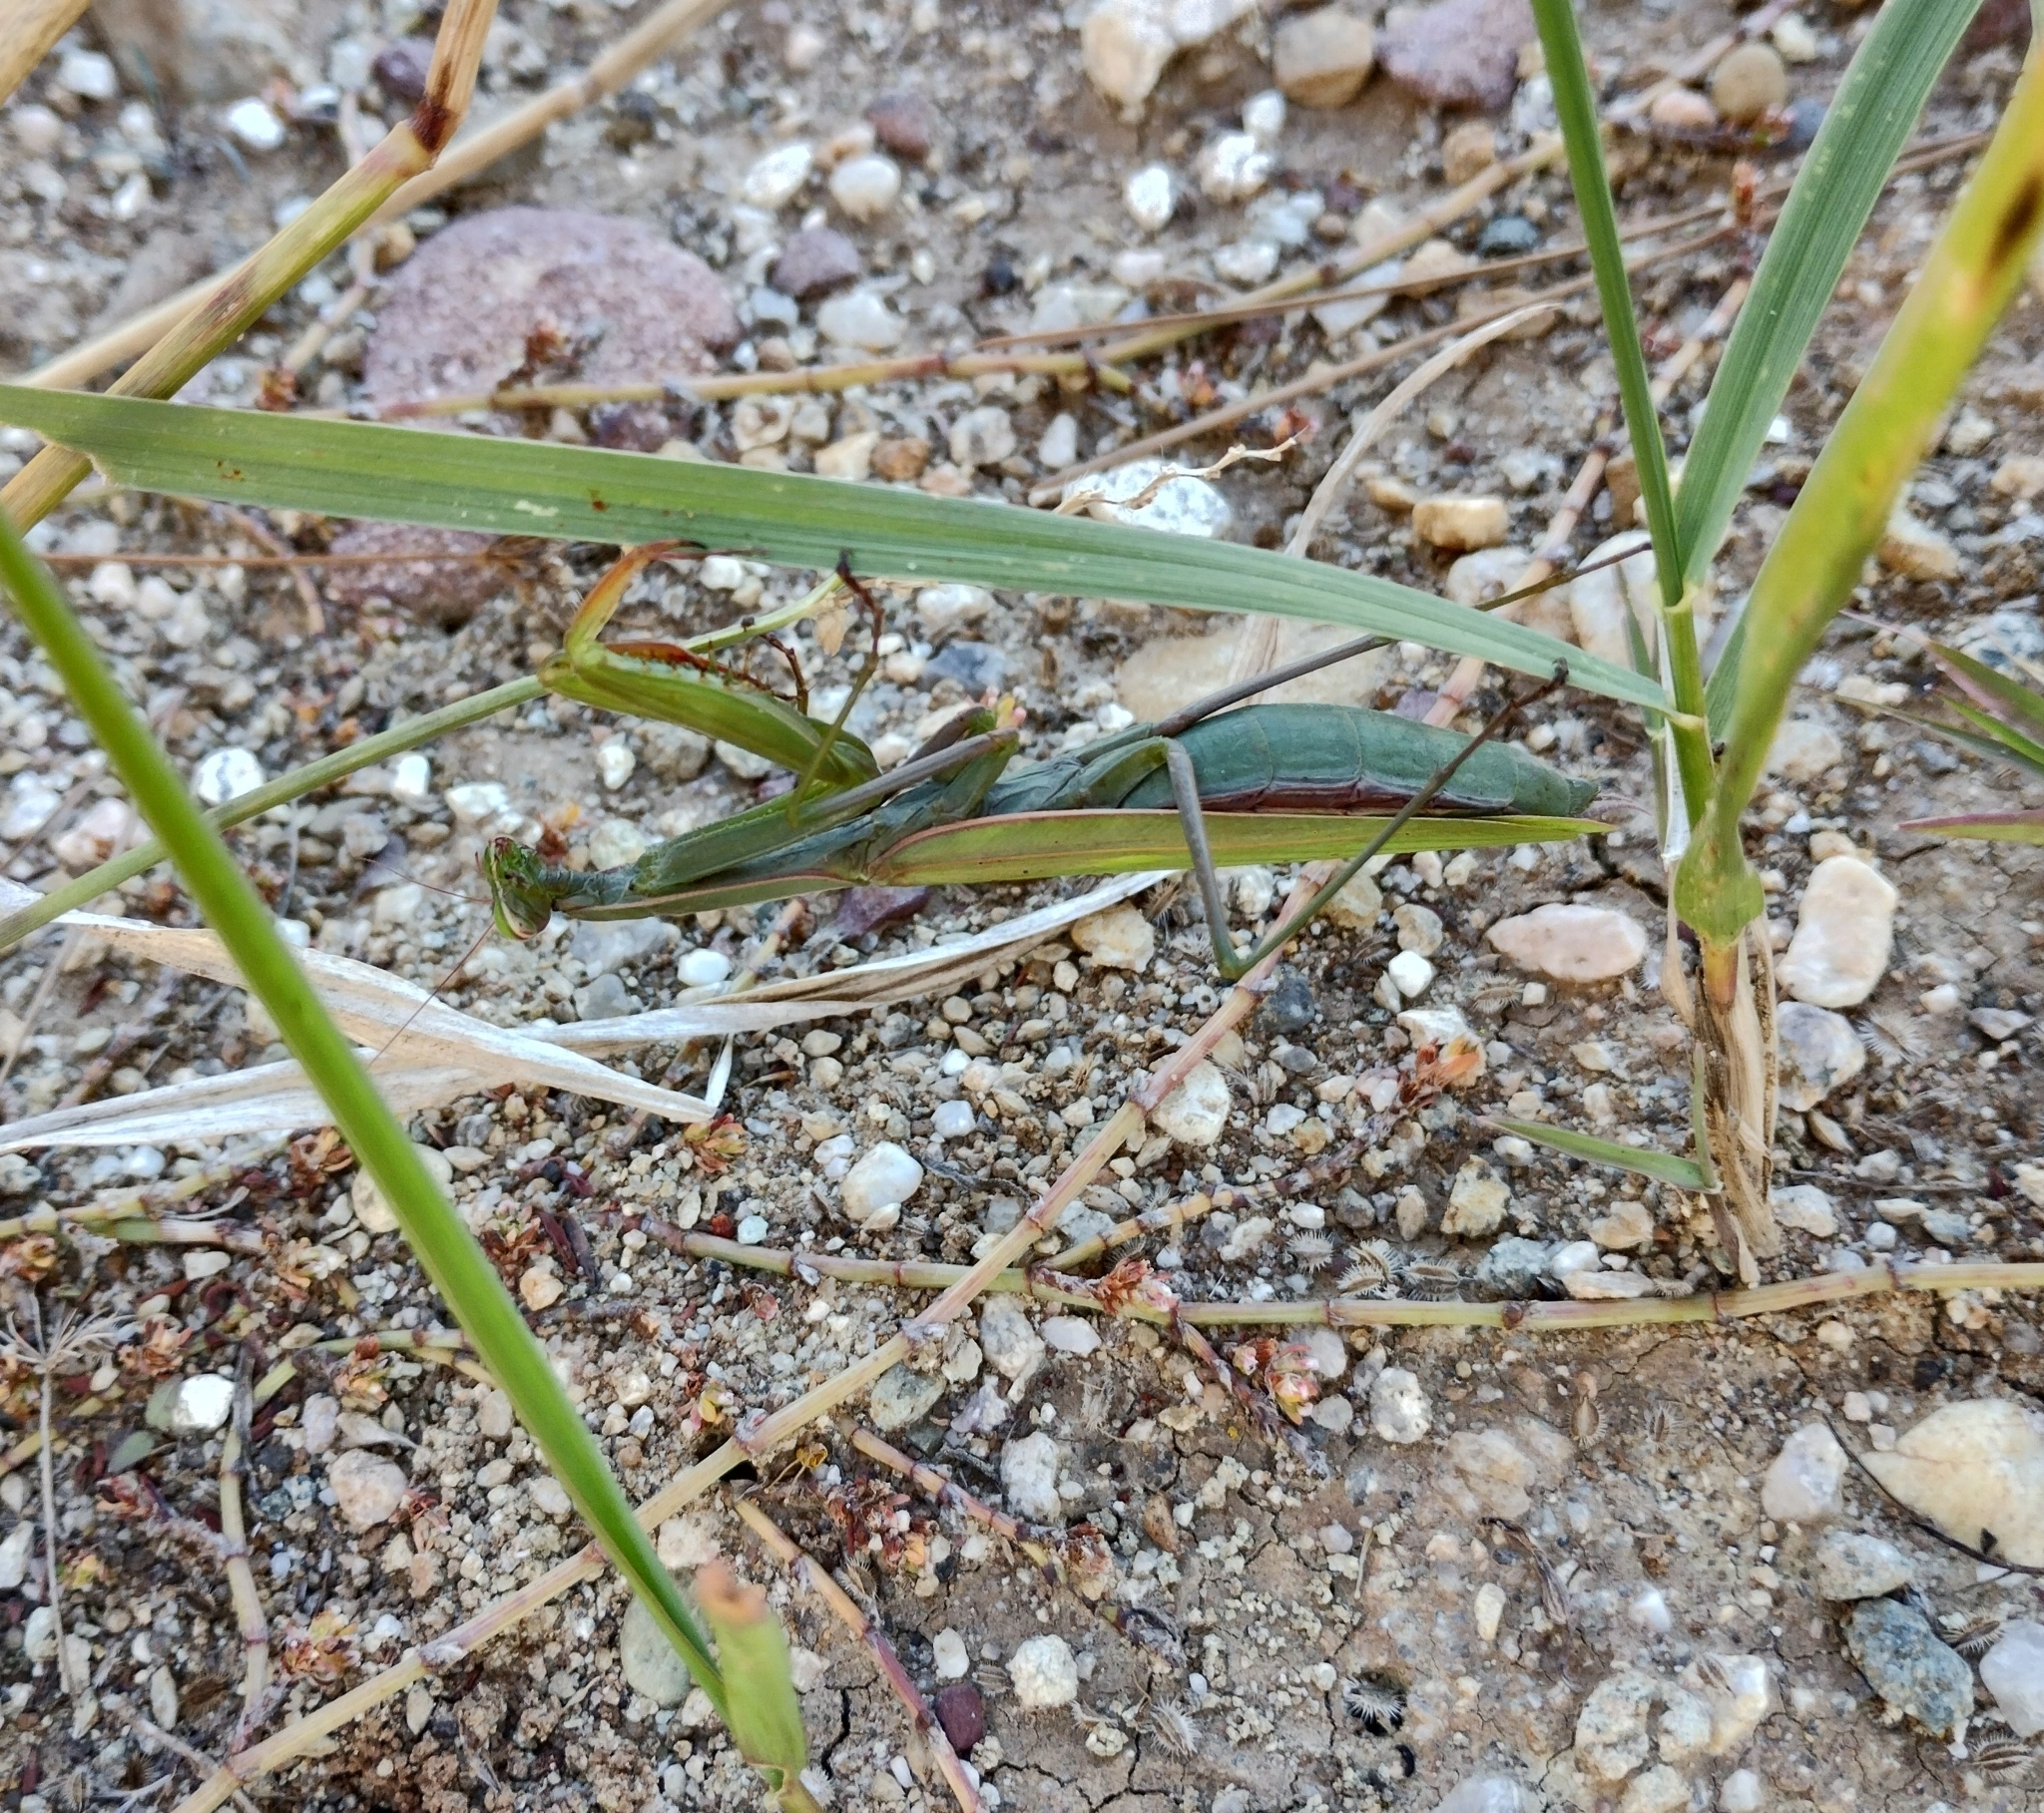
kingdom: Animalia
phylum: Arthropoda
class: Insecta
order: Mantodea
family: Mantidae
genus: Mantis
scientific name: Mantis religiosa
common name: Praying mantis
